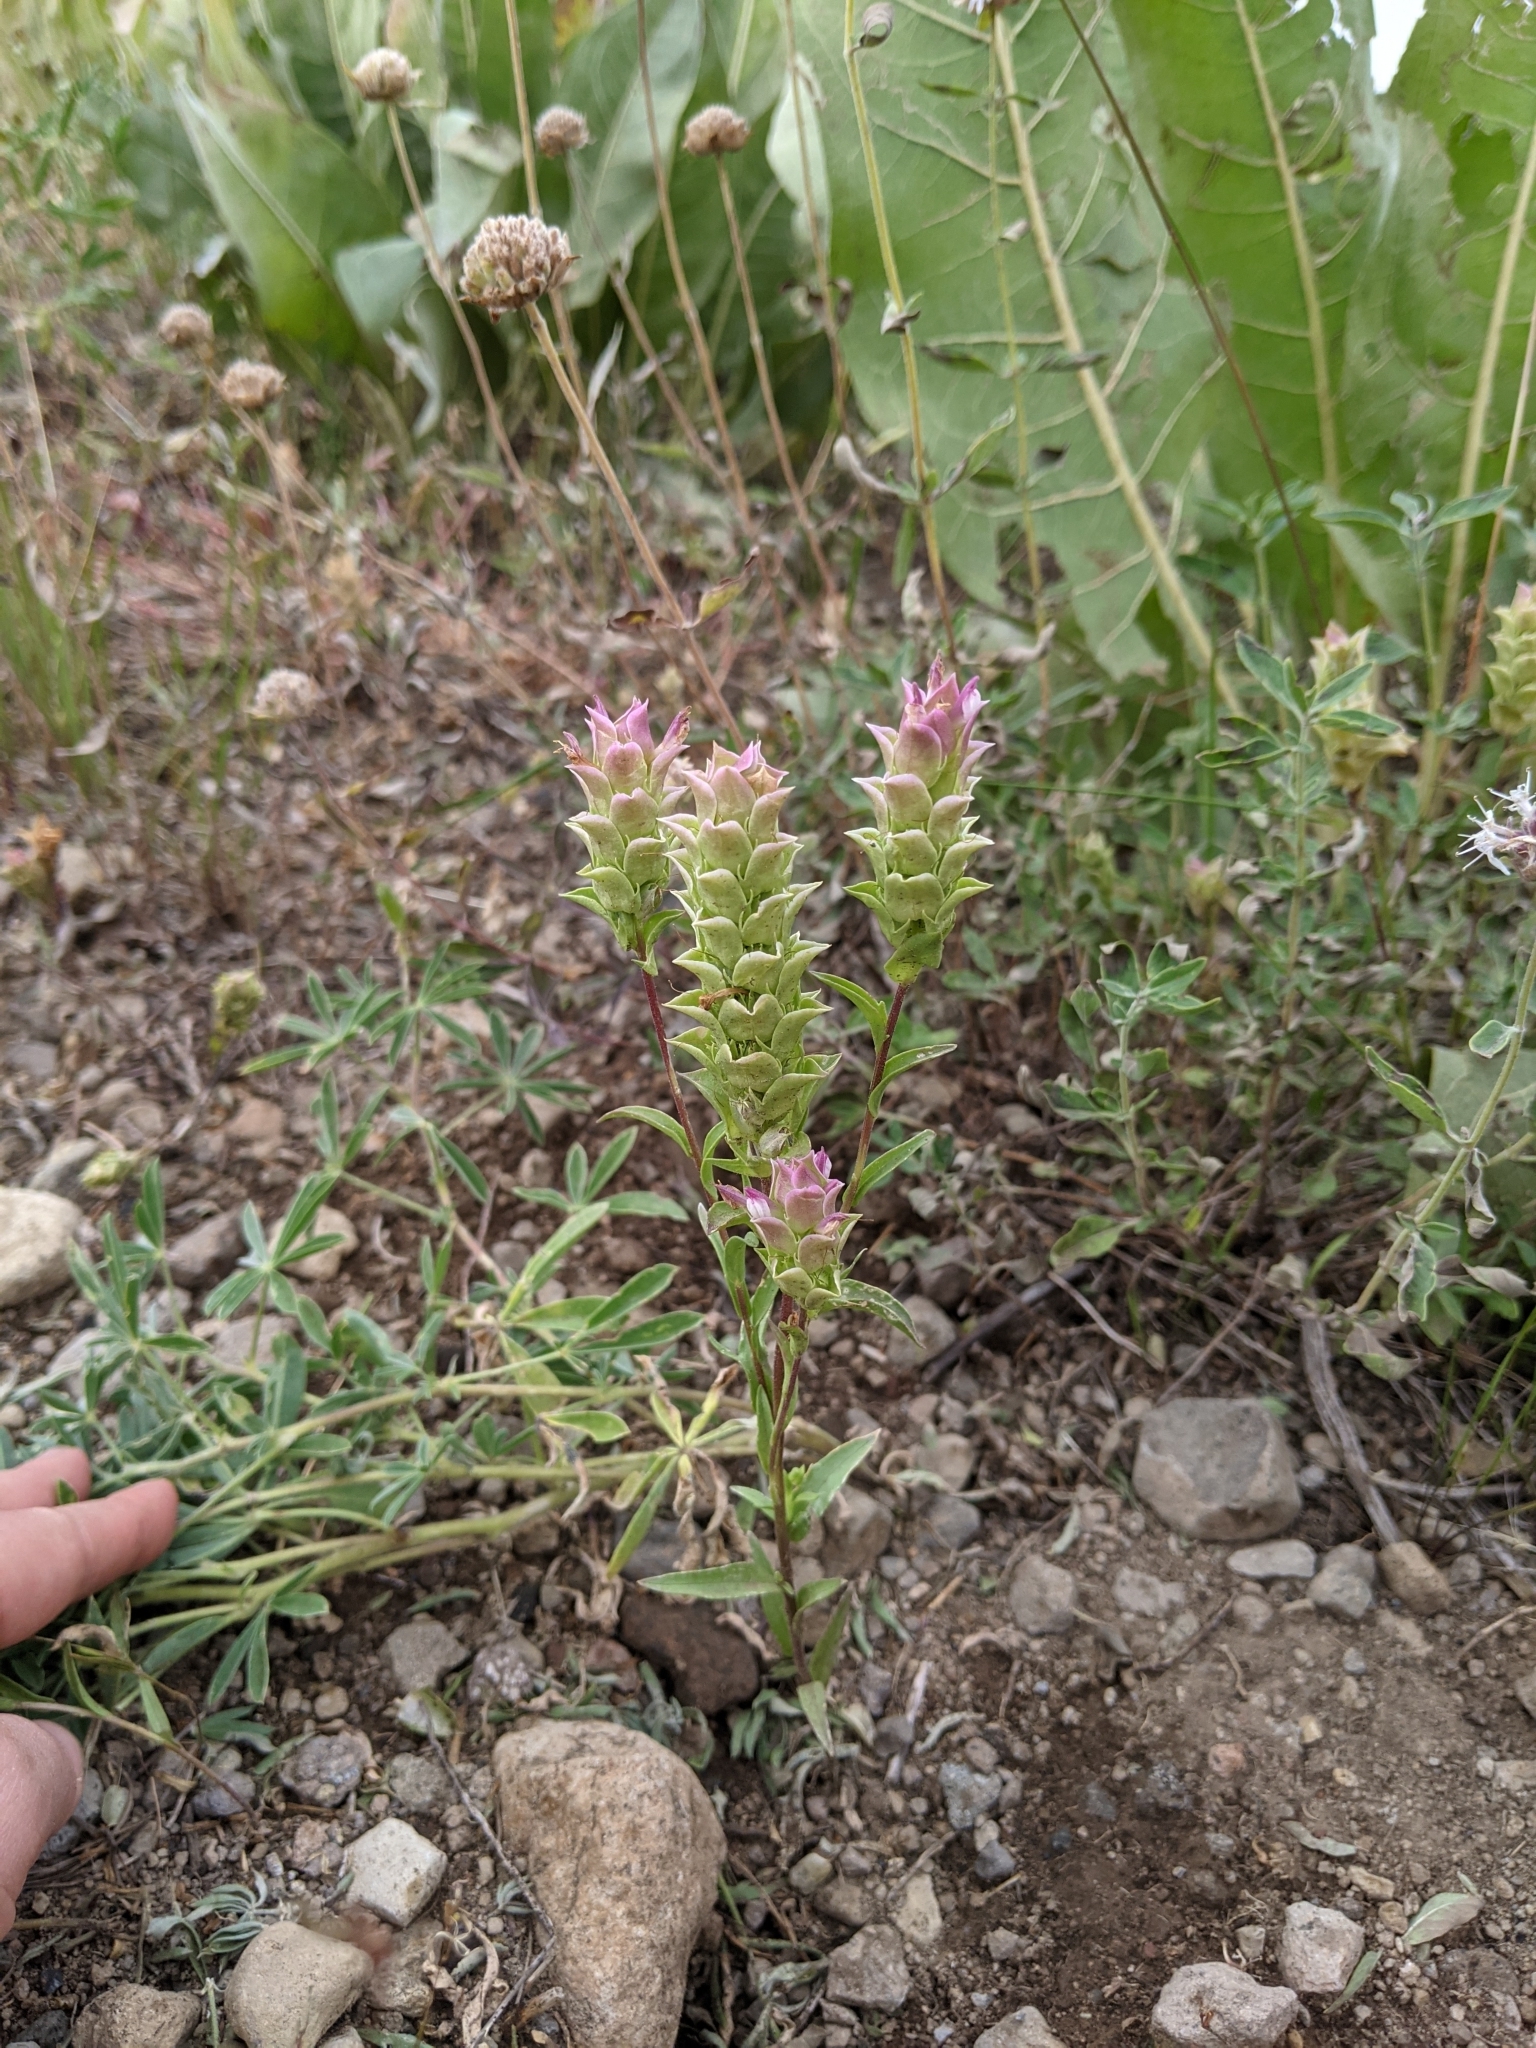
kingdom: Plantae
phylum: Tracheophyta
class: Magnoliopsida
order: Lamiales
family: Orobanchaceae
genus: Orthocarpus
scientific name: Orthocarpus cuspidatus
